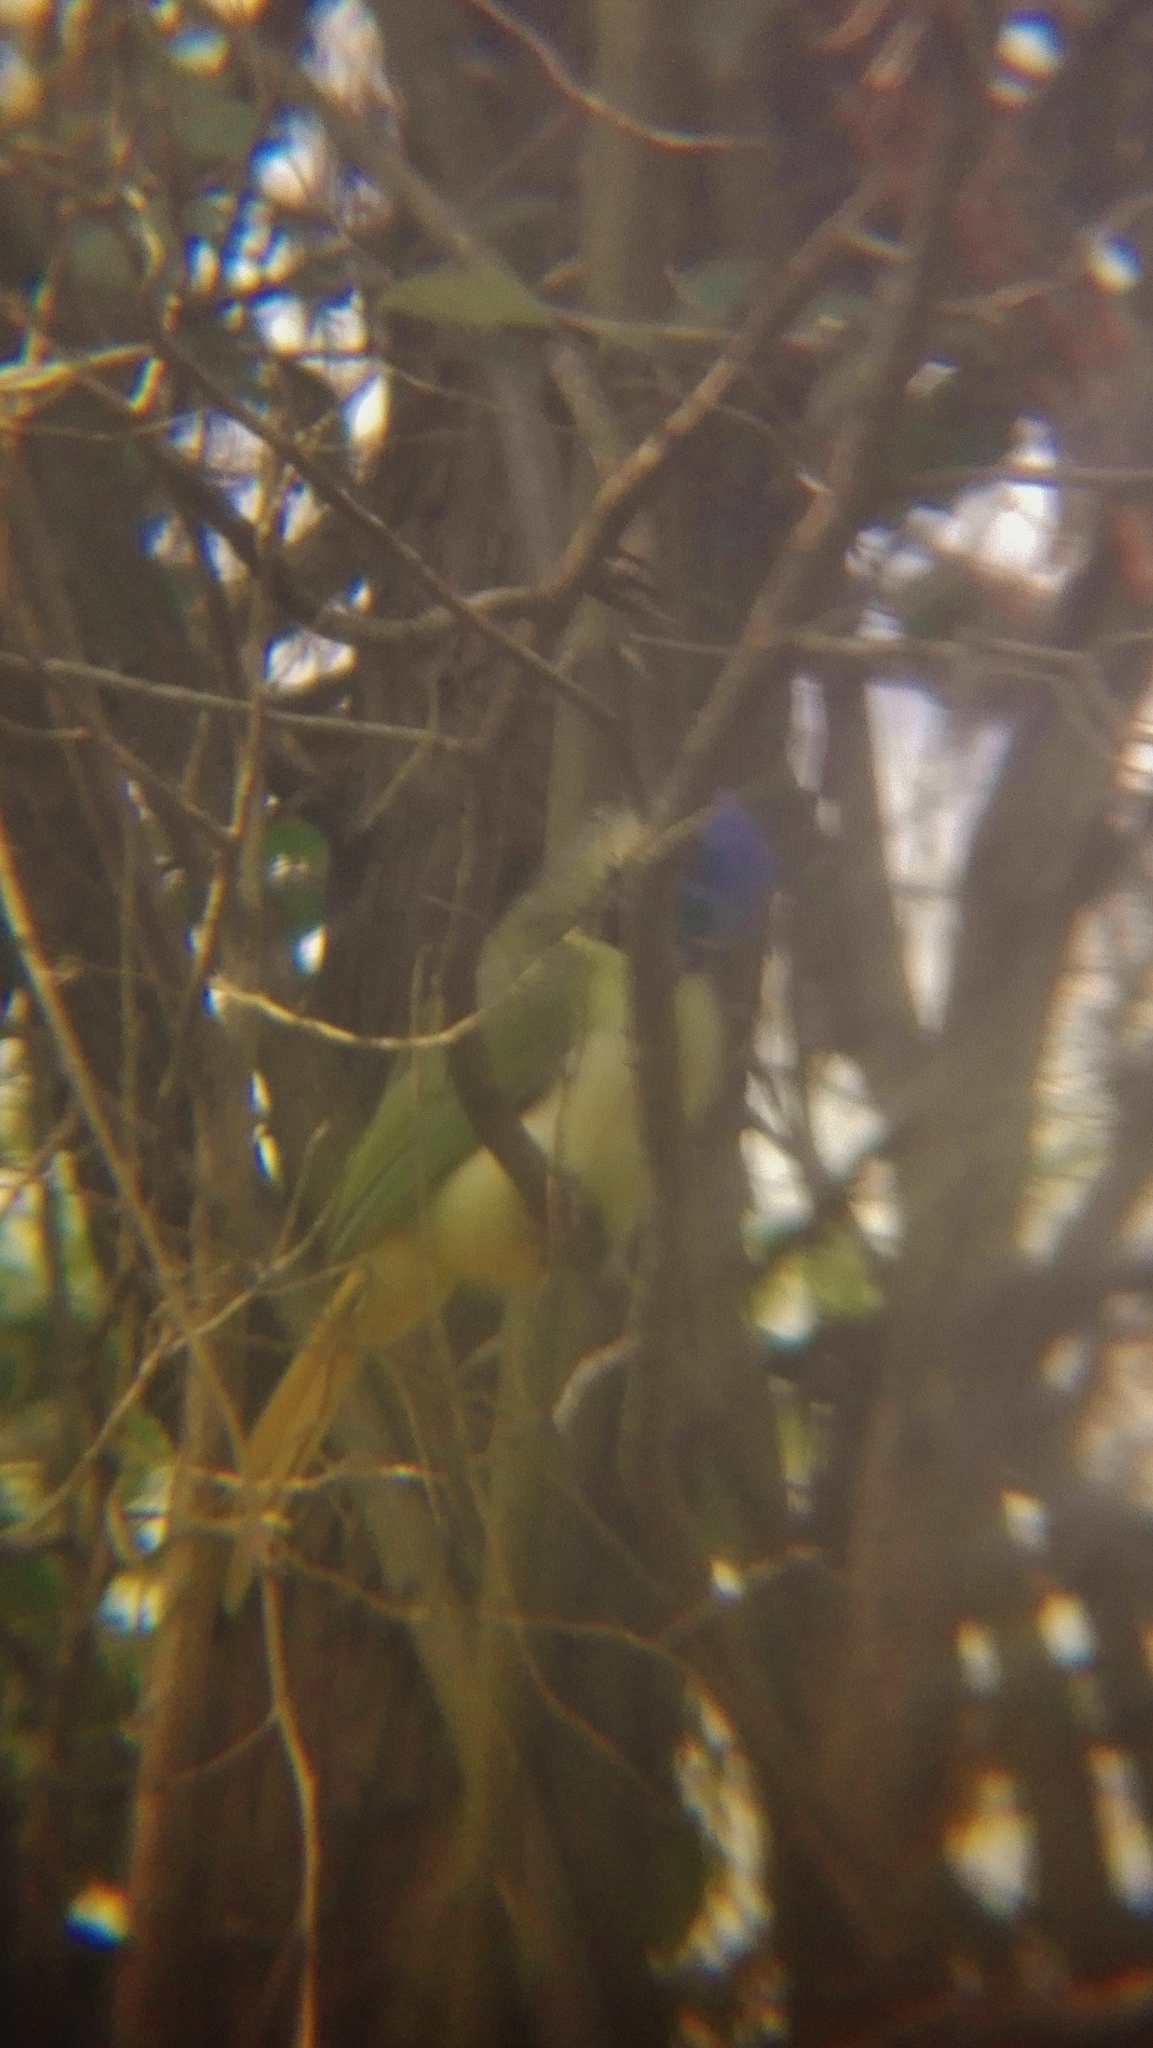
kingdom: Animalia
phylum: Chordata
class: Aves
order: Passeriformes
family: Corvidae
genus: Cyanocorax
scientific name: Cyanocorax yncas
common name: Green jay
